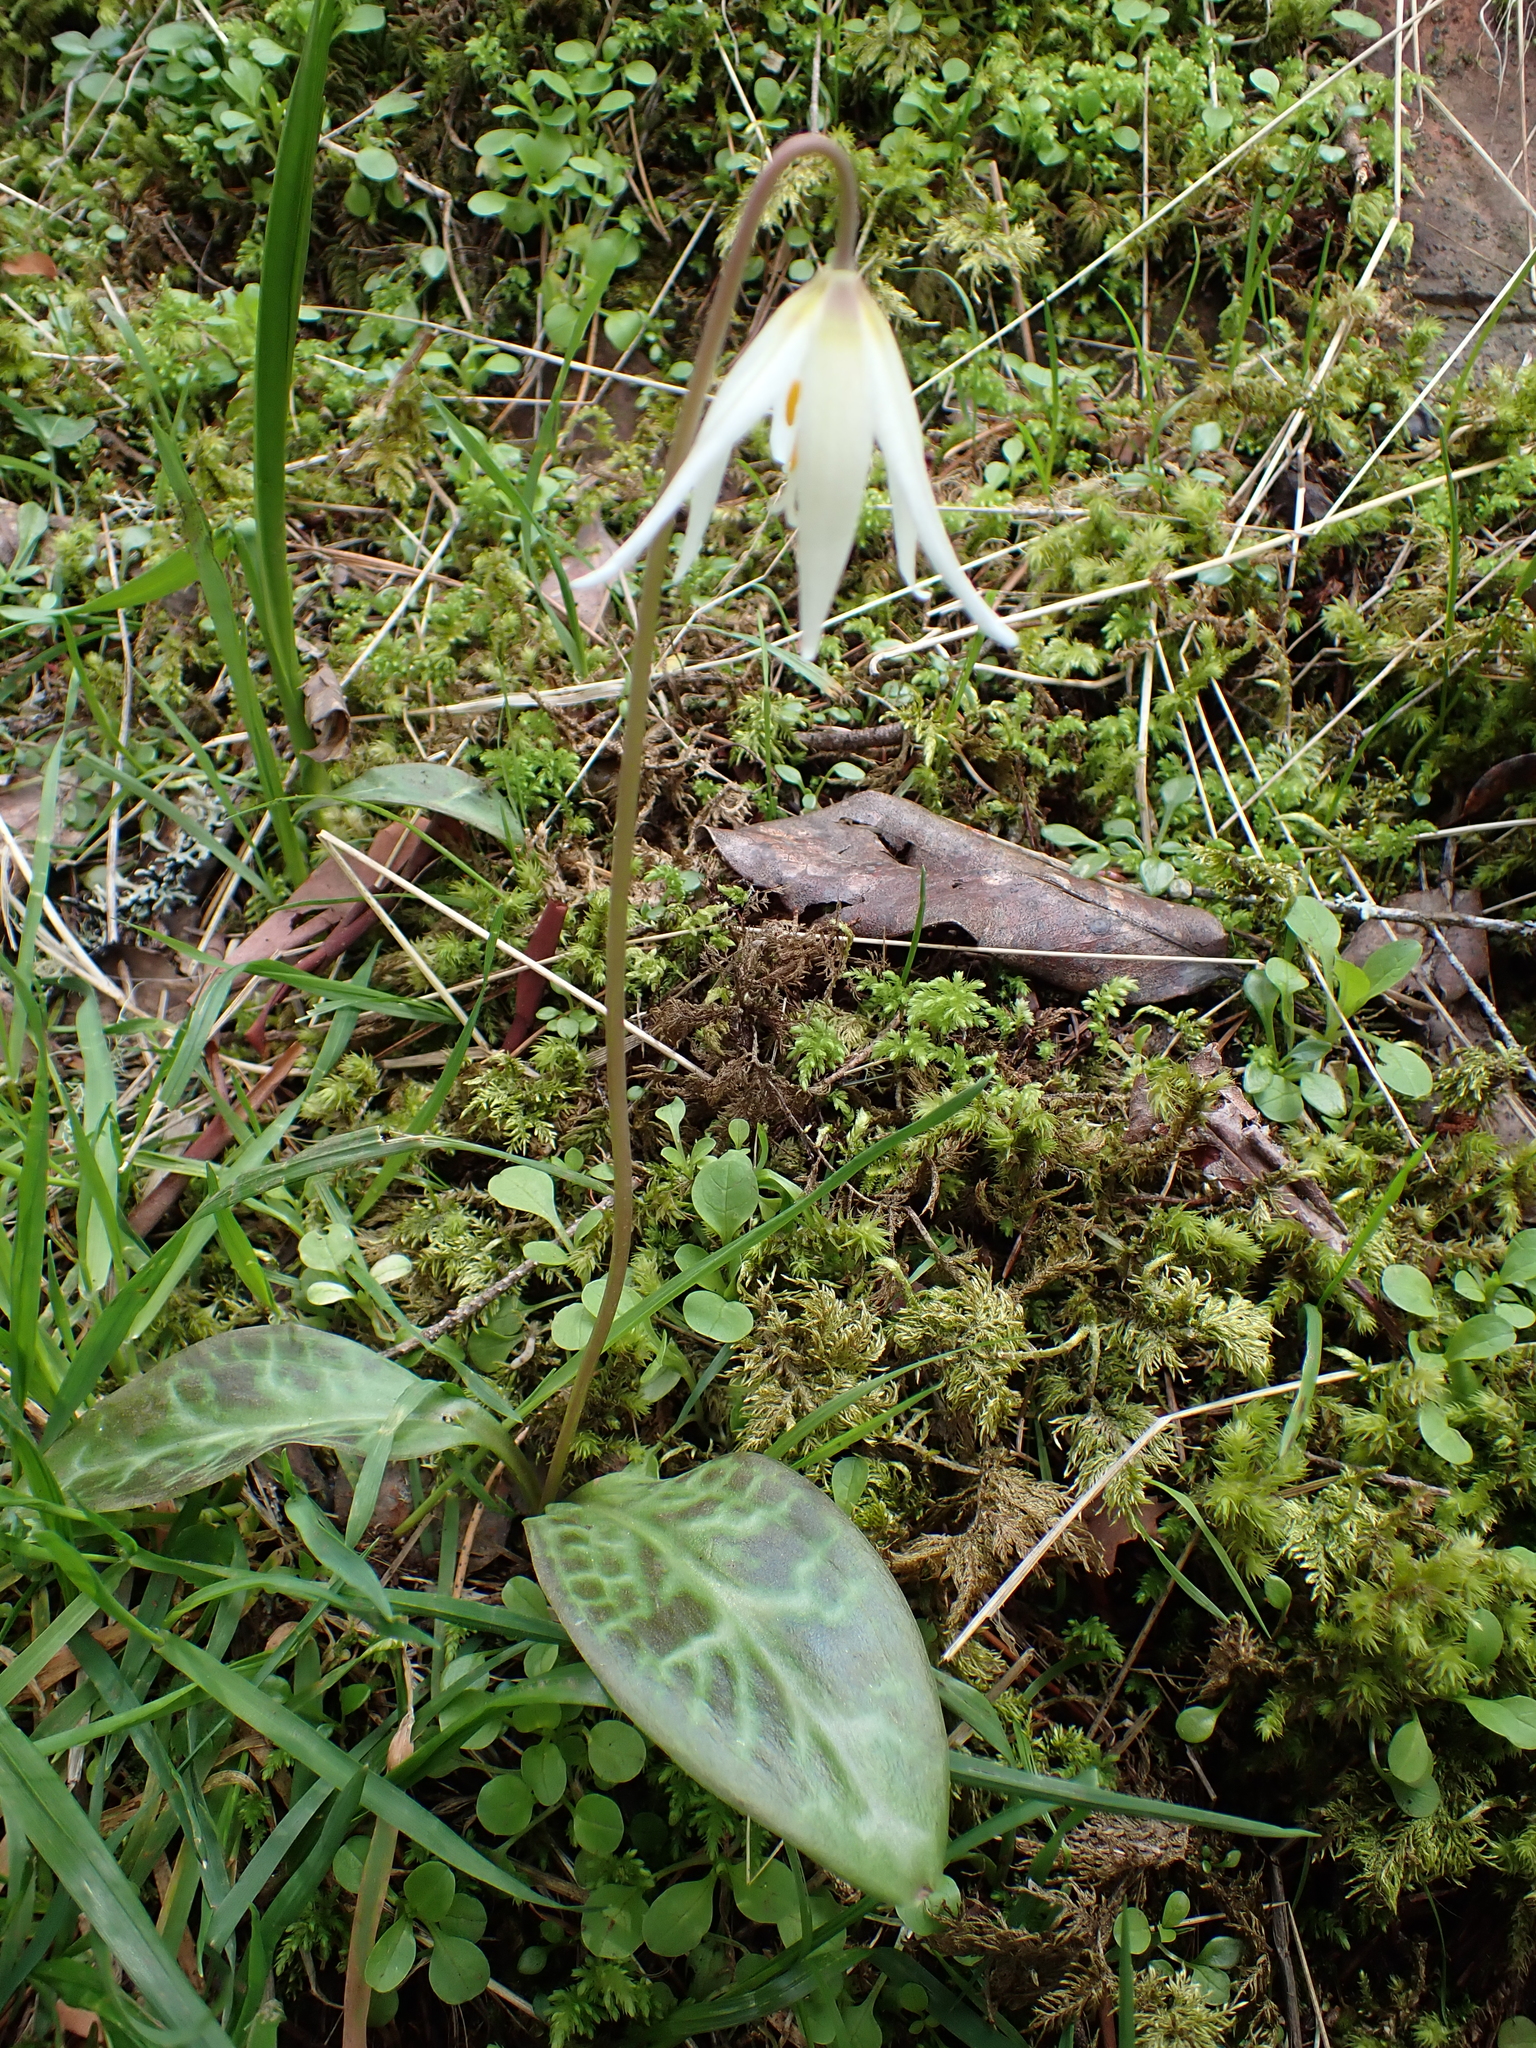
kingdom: Plantae
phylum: Tracheophyta
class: Liliopsida
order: Liliales
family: Liliaceae
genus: Erythronium
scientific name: Erythronium oregonum
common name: Giant adder's-tongue
